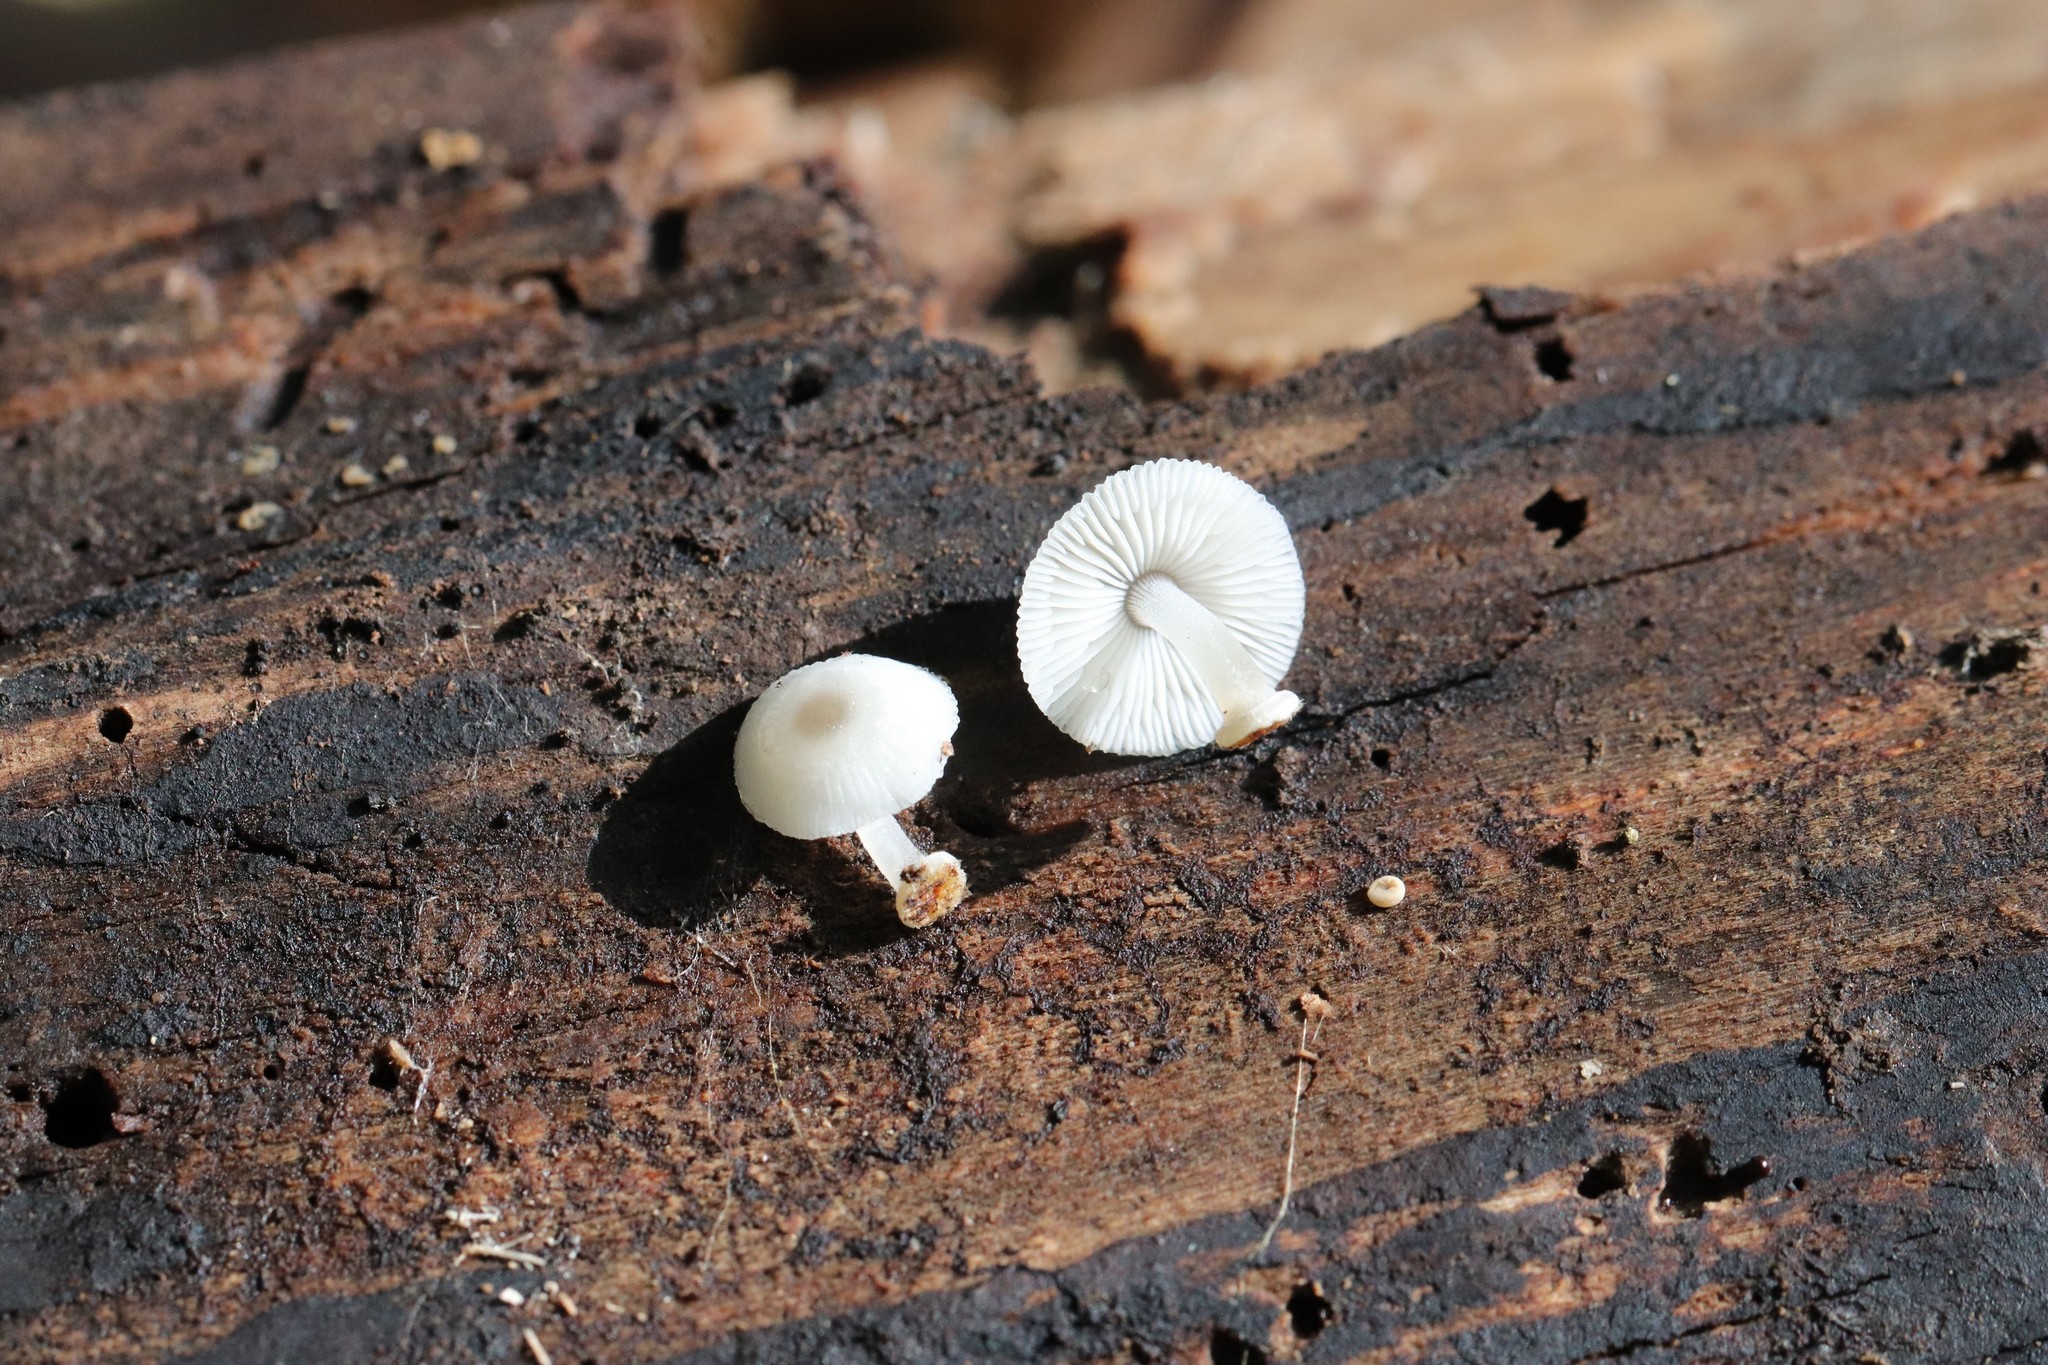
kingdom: Fungi
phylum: Basidiomycota
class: Agaricomycetes
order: Agaricales
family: Mycenaceae
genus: Mycena
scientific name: Mycena chlorophos
